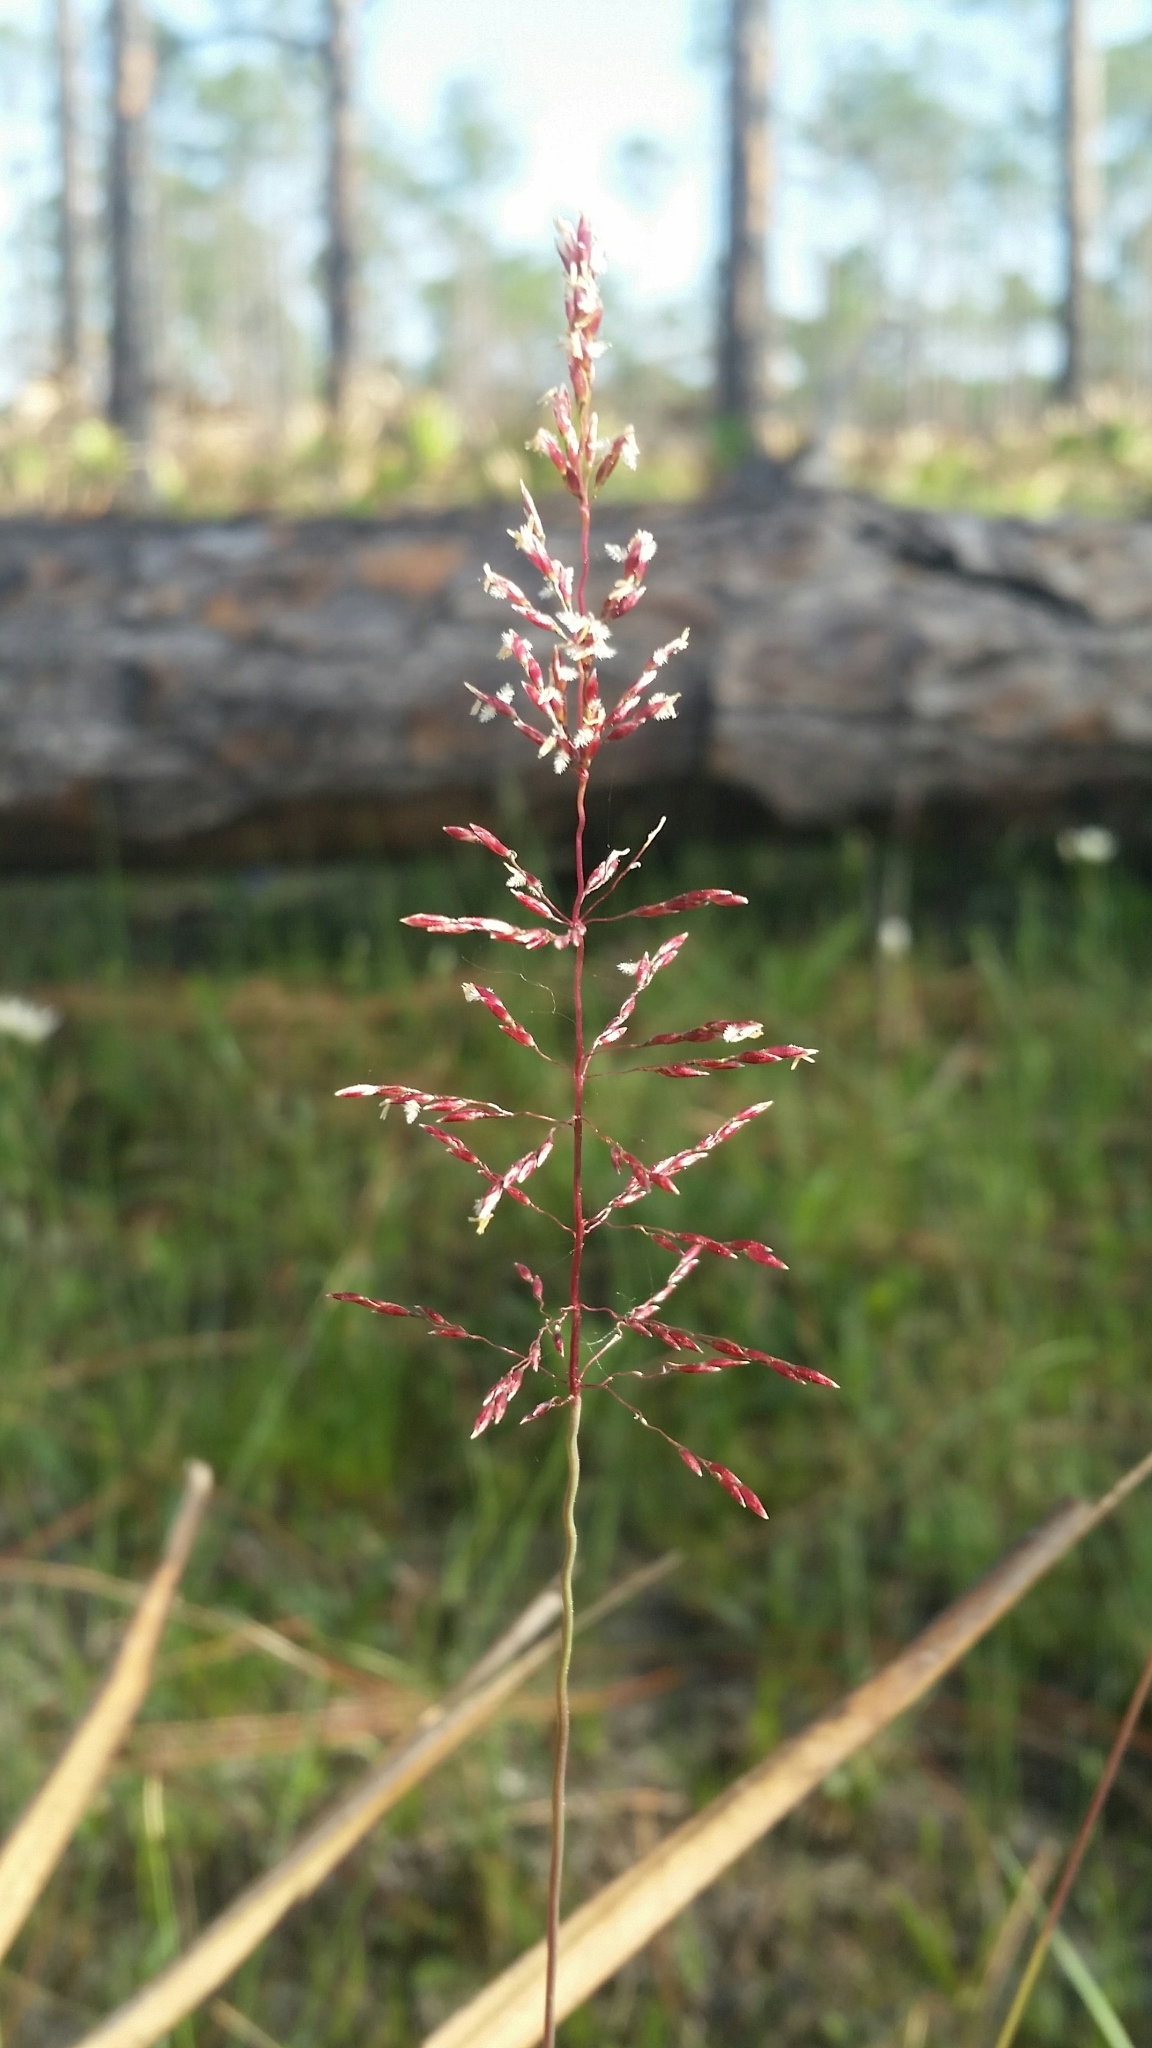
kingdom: Plantae
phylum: Tracheophyta
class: Liliopsida
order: Poales
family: Poaceae
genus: Sporobolus
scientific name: Sporobolus junceus
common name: Lizard grass
